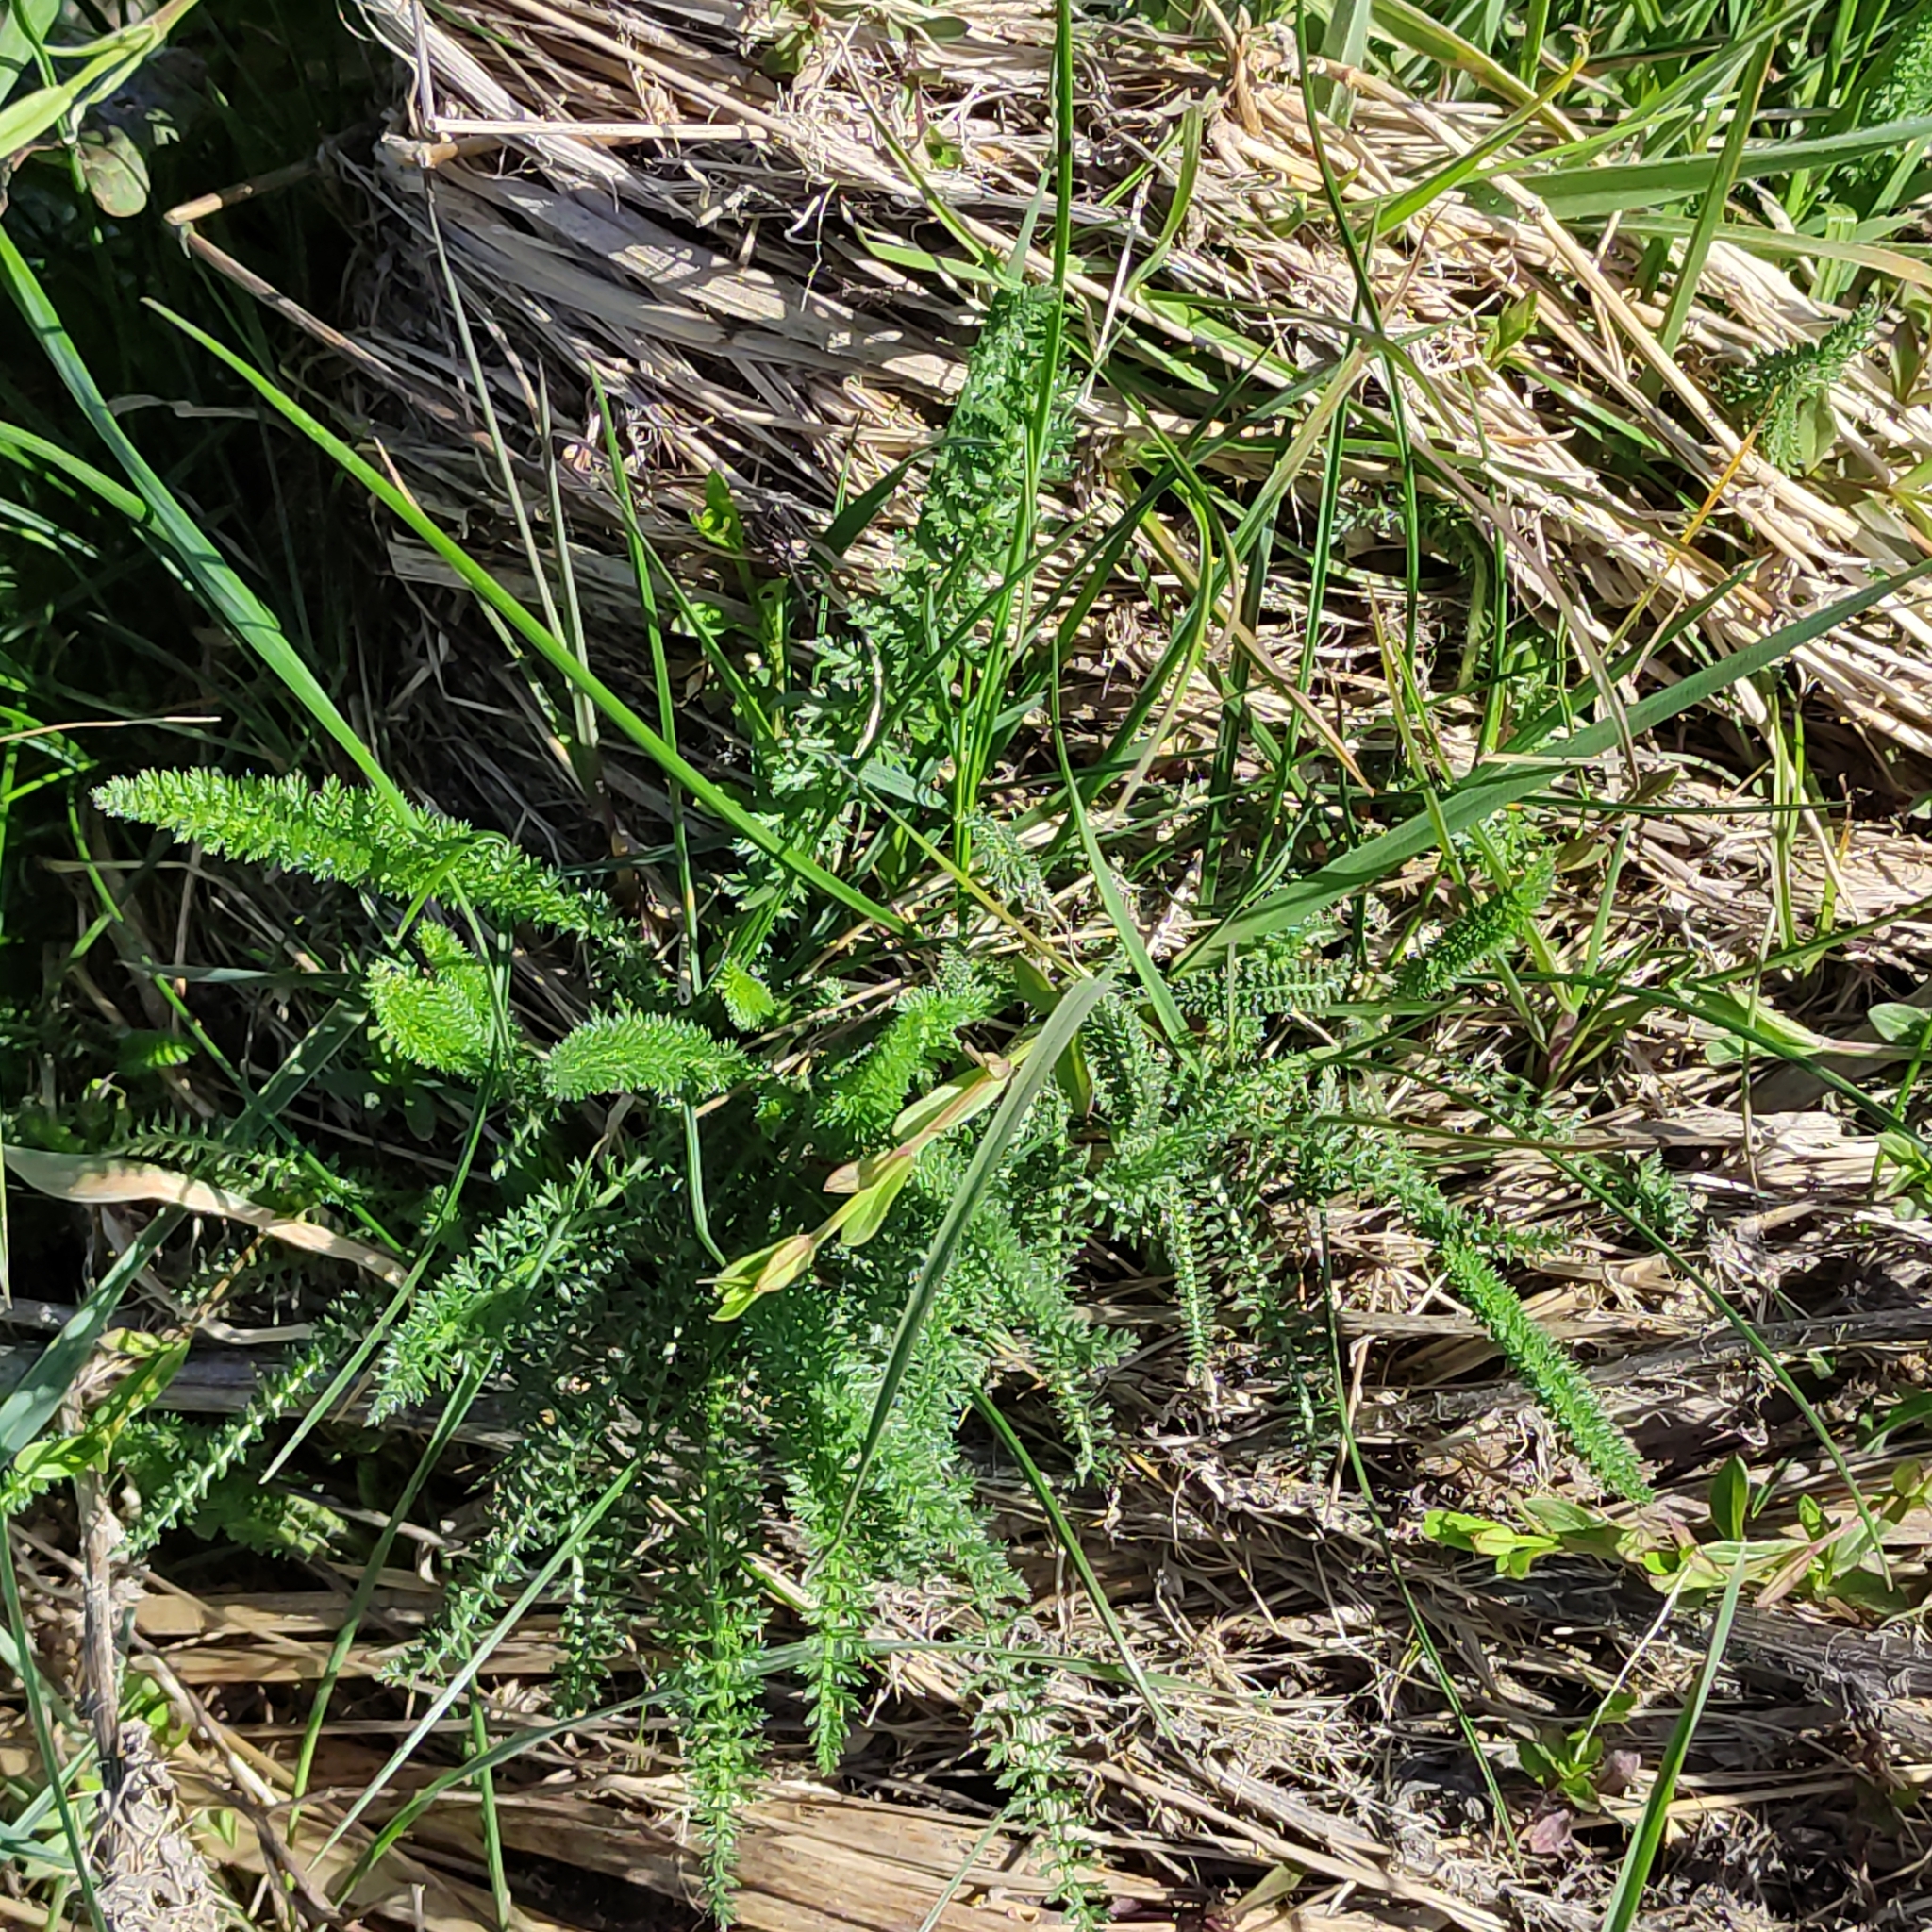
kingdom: Plantae
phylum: Tracheophyta
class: Magnoliopsida
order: Asterales
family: Asteraceae
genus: Achillea
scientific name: Achillea millefolium
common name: Yarrow
